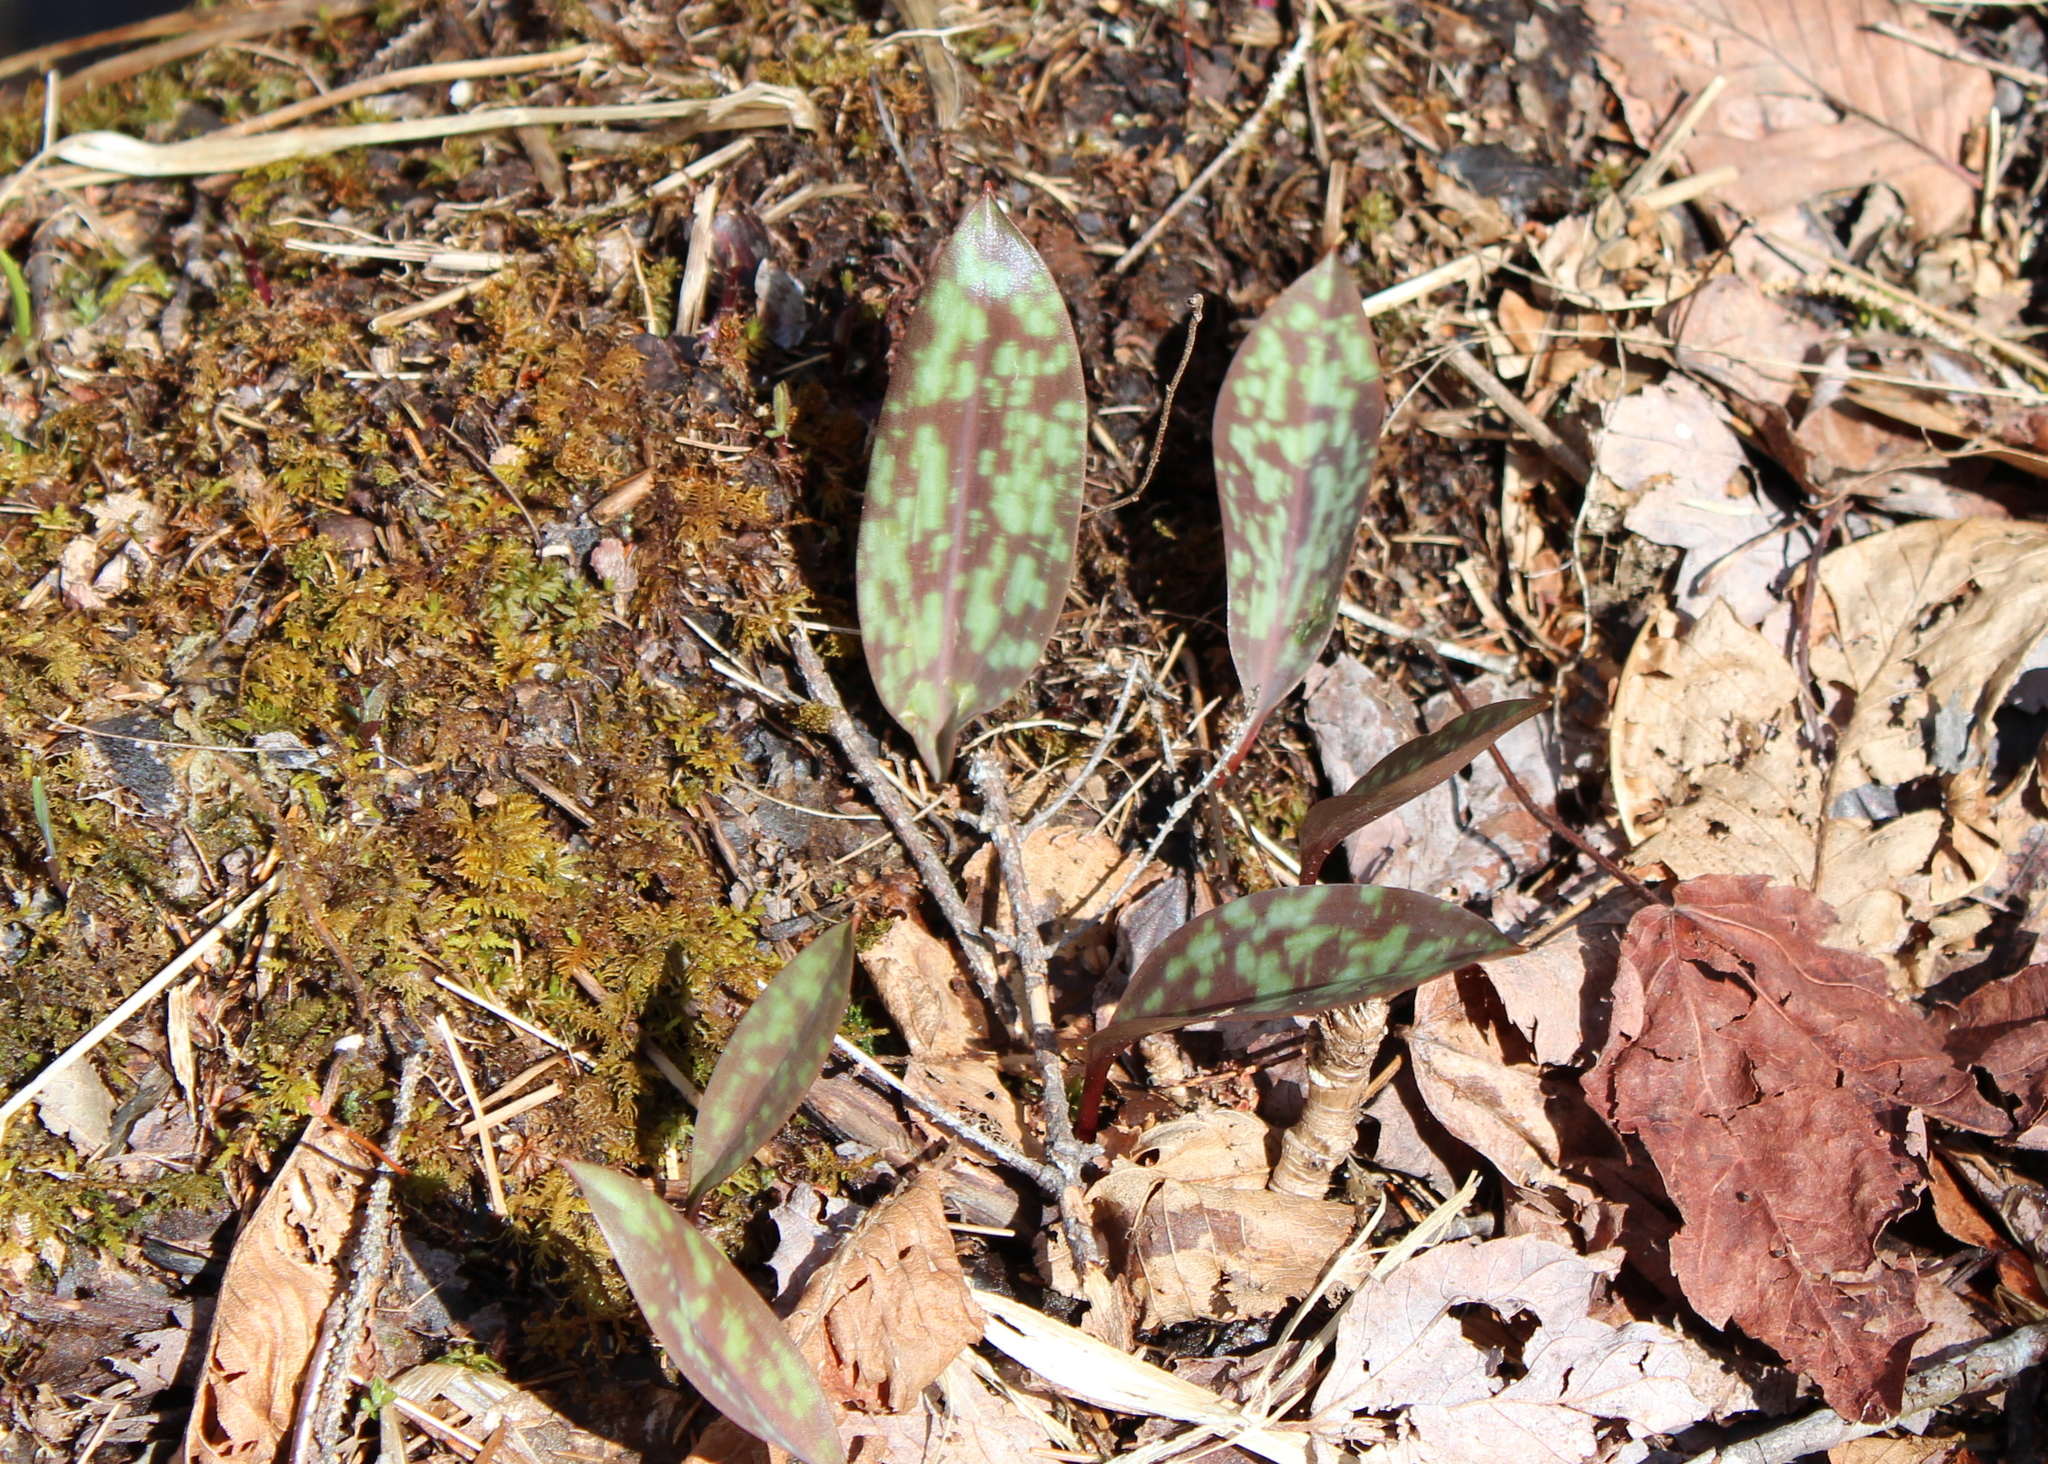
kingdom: Plantae
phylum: Tracheophyta
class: Liliopsida
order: Liliales
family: Liliaceae
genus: Erythronium
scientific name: Erythronium americanum
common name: Yellow adder's-tongue
